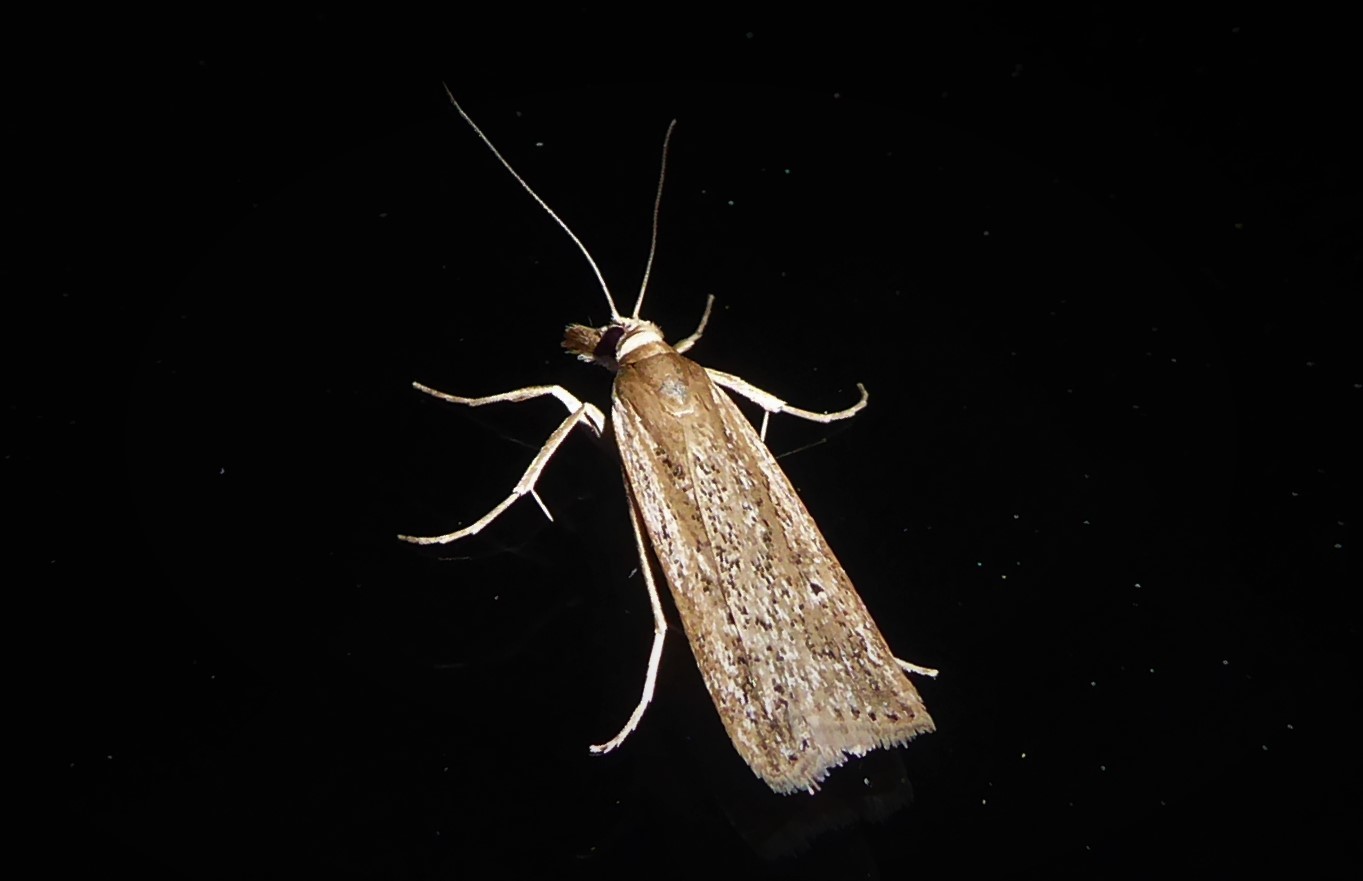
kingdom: Animalia
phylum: Arthropoda
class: Insecta
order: Lepidoptera
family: Crambidae
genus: Eudonia
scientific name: Eudonia sabulosella
